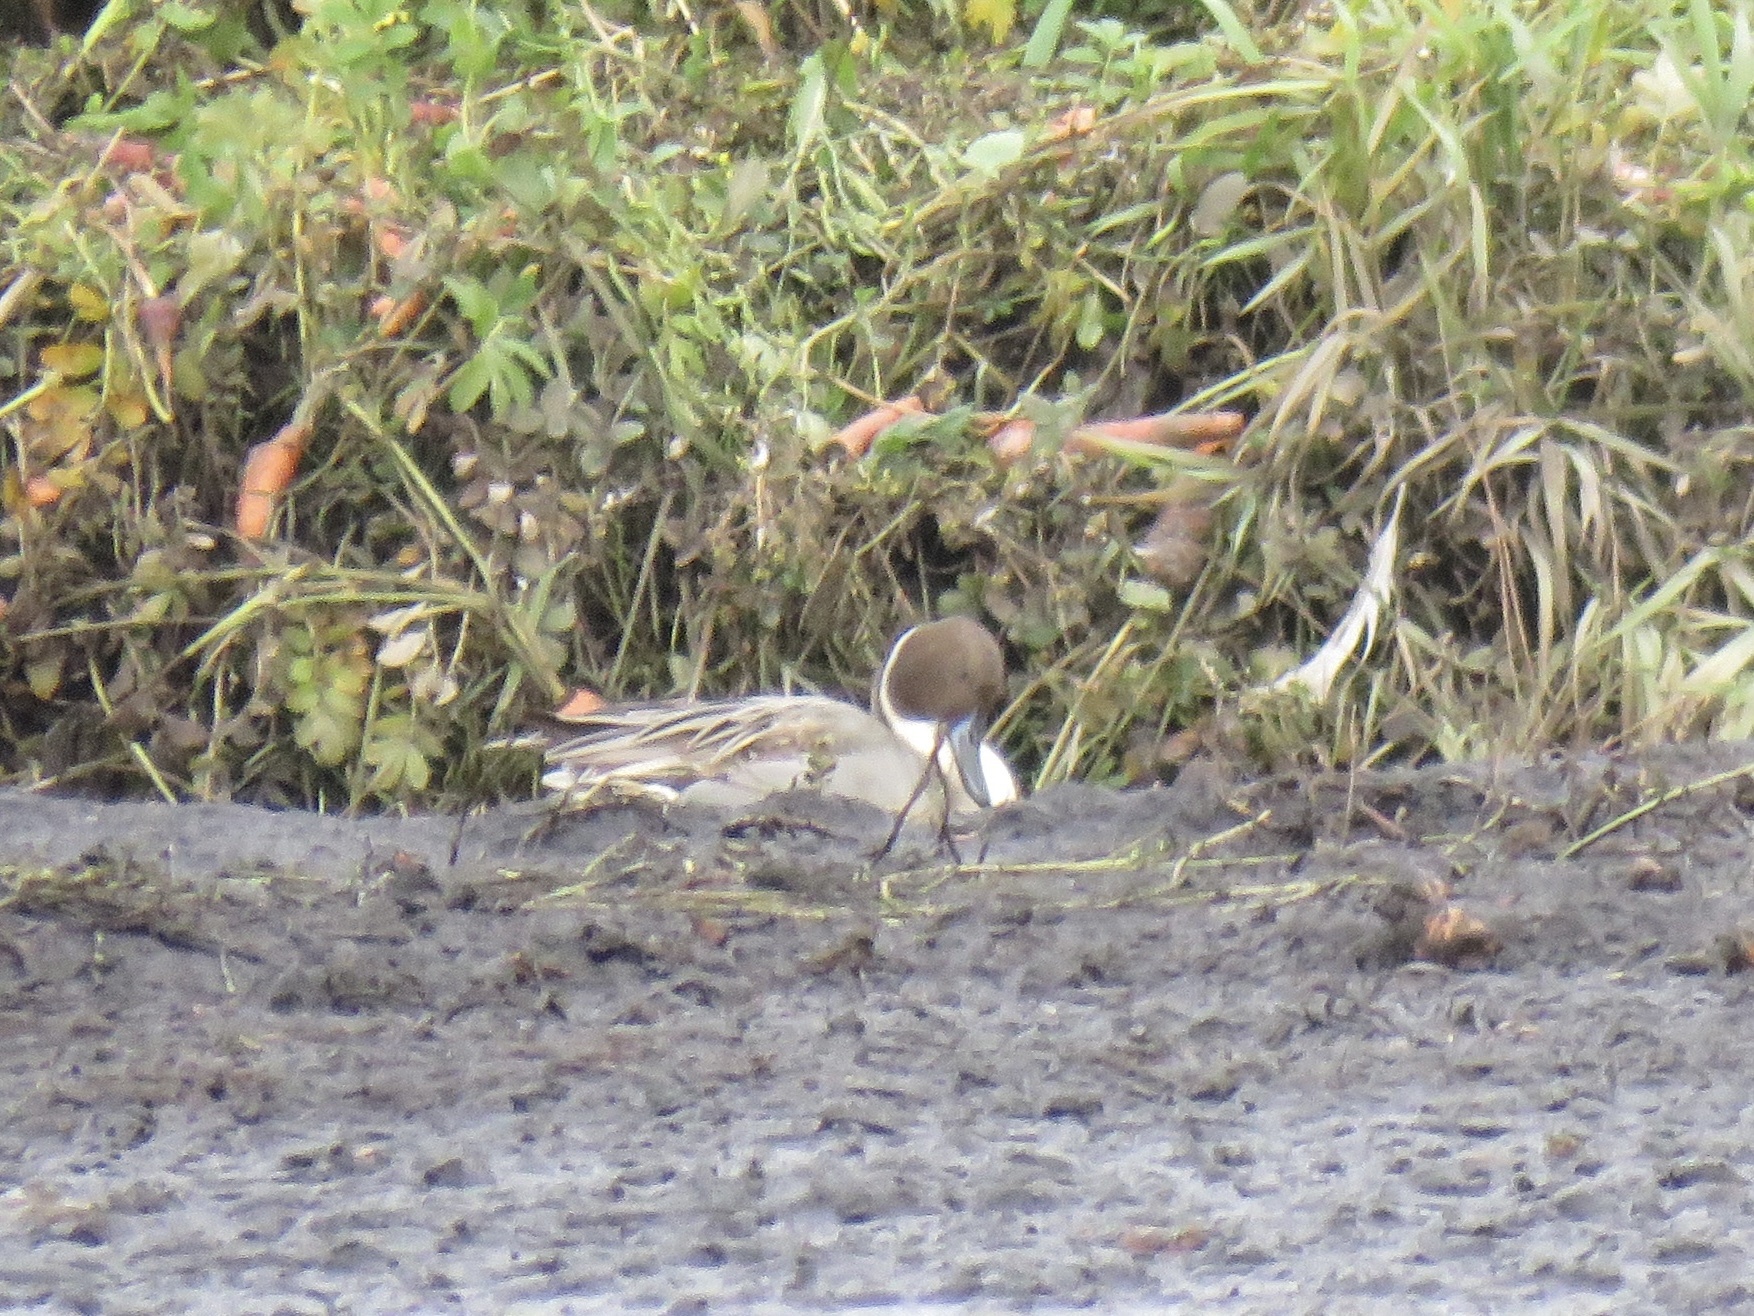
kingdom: Animalia
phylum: Chordata
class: Aves
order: Anseriformes
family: Anatidae
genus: Anas
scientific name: Anas acuta
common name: Northern pintail
